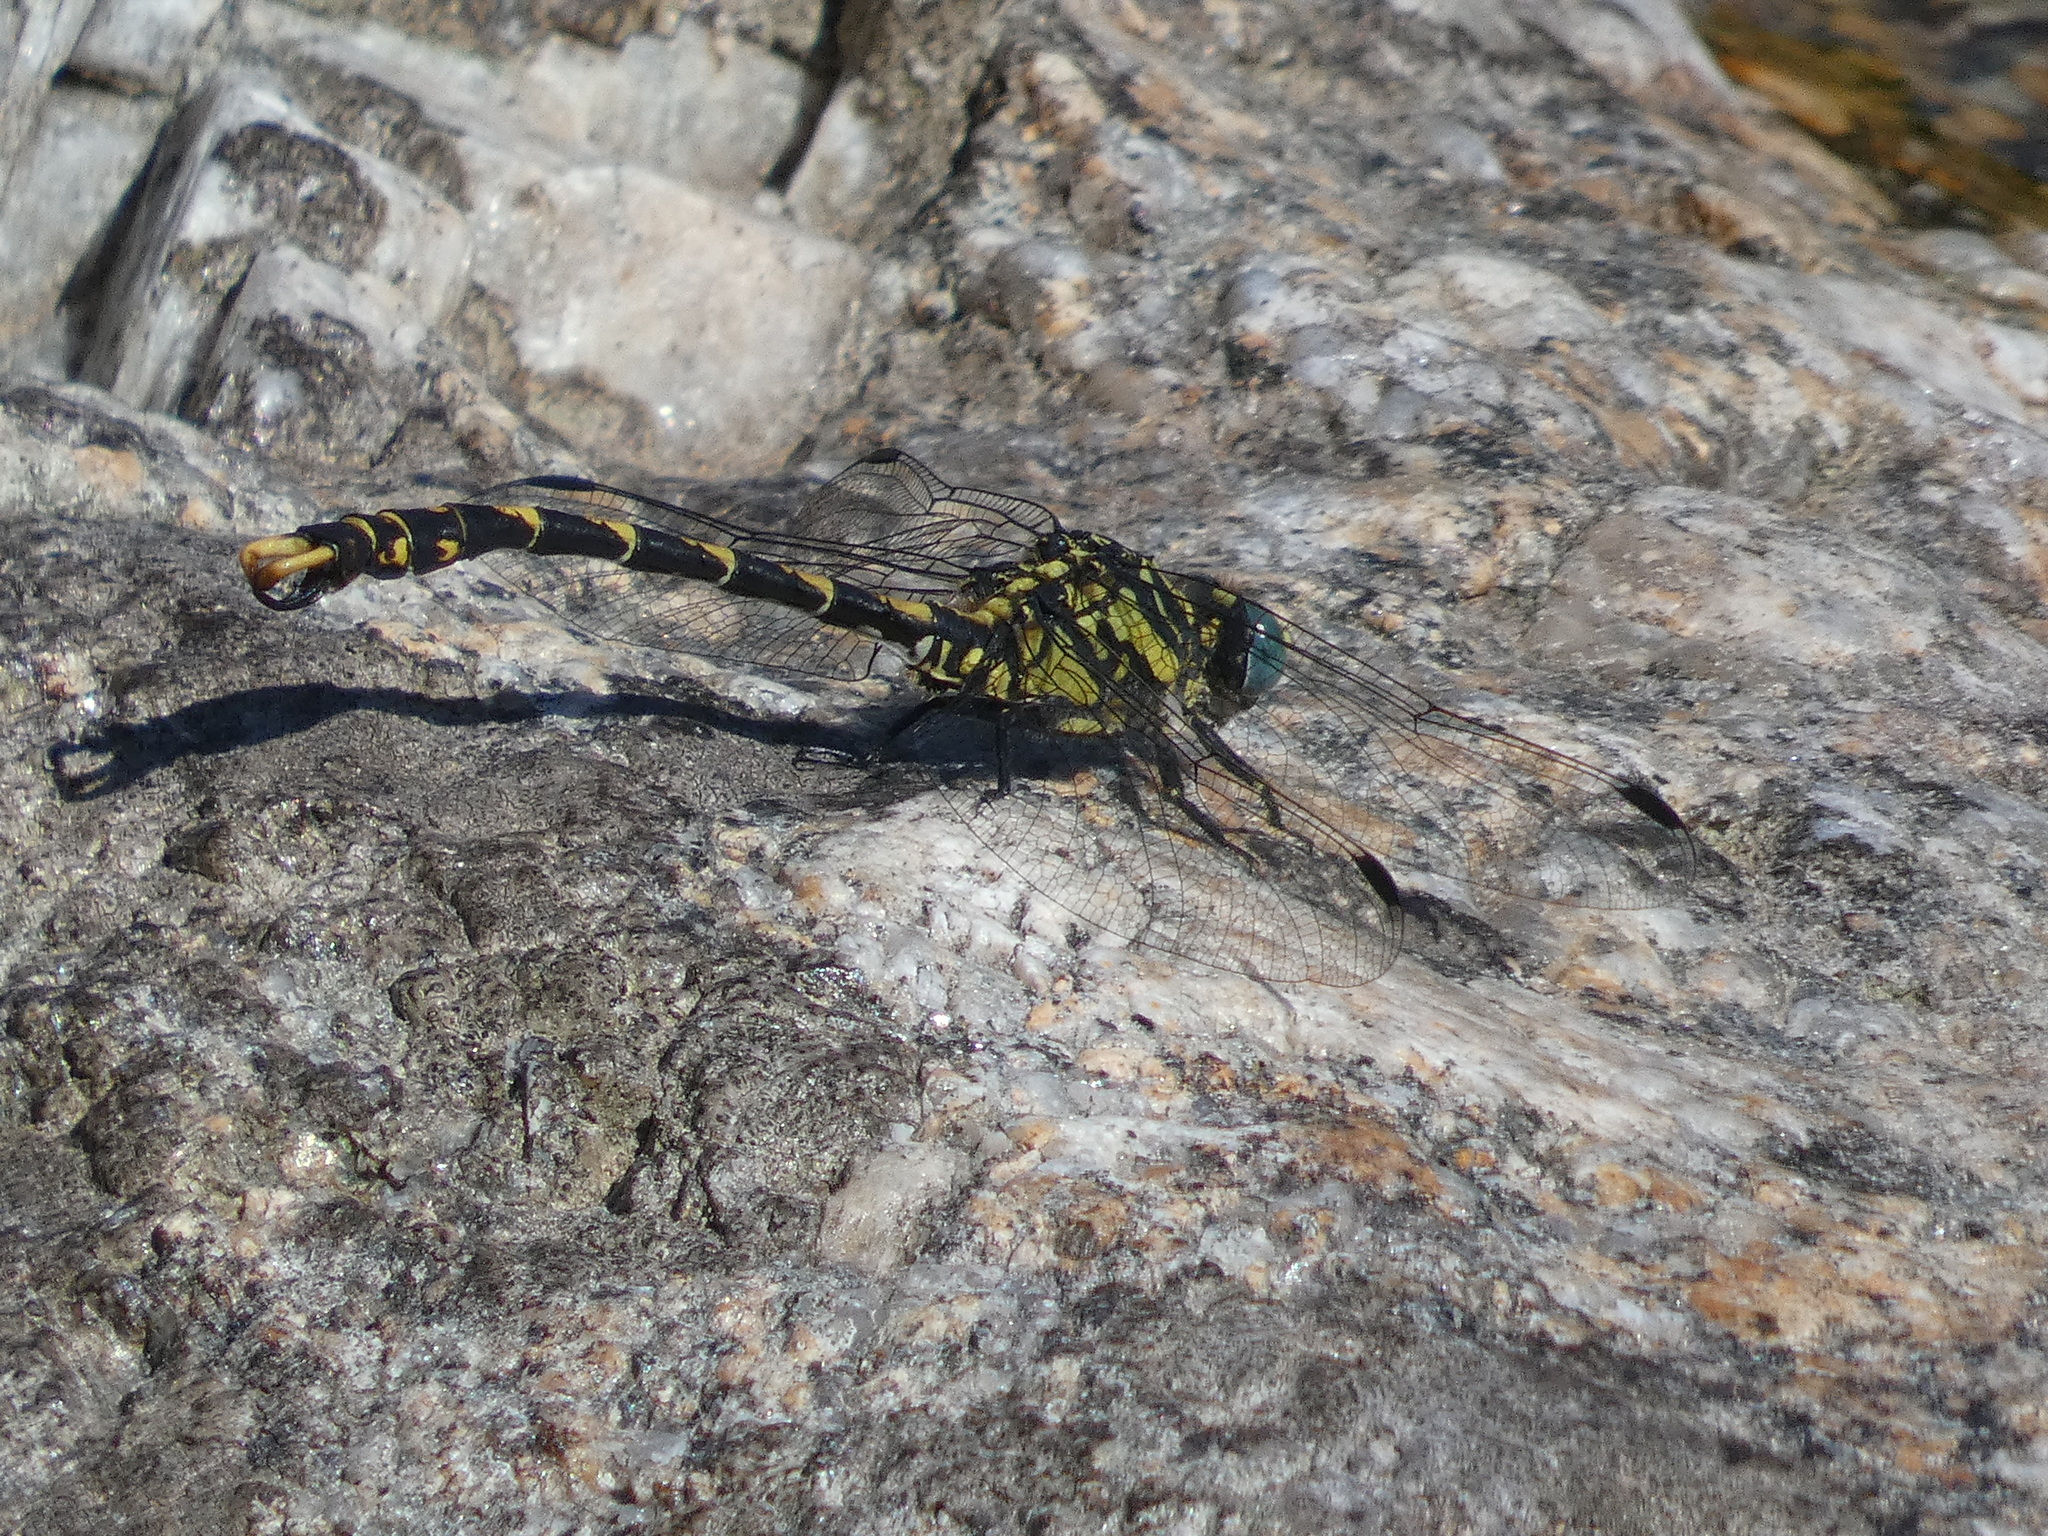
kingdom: Animalia
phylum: Arthropoda
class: Insecta
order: Odonata
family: Gomphidae
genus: Onychogomphus
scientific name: Onychogomphus uncatus
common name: Large pincertail
